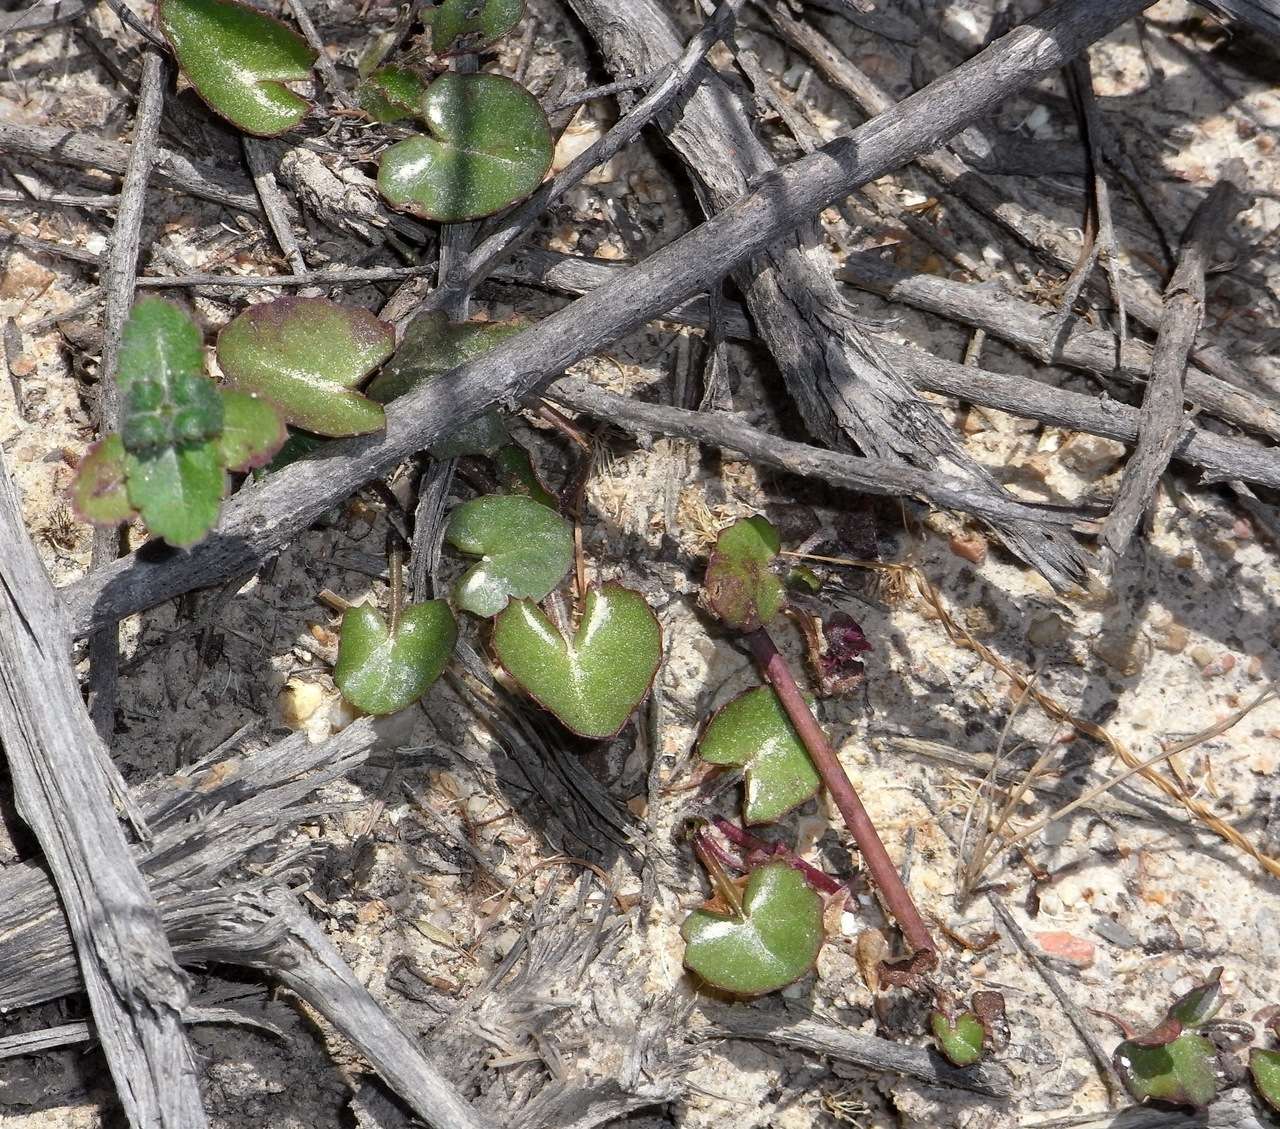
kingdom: Plantae
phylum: Tracheophyta
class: Magnoliopsida
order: Apiales
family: Apiaceae
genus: Centella
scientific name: Centella cordifolia
